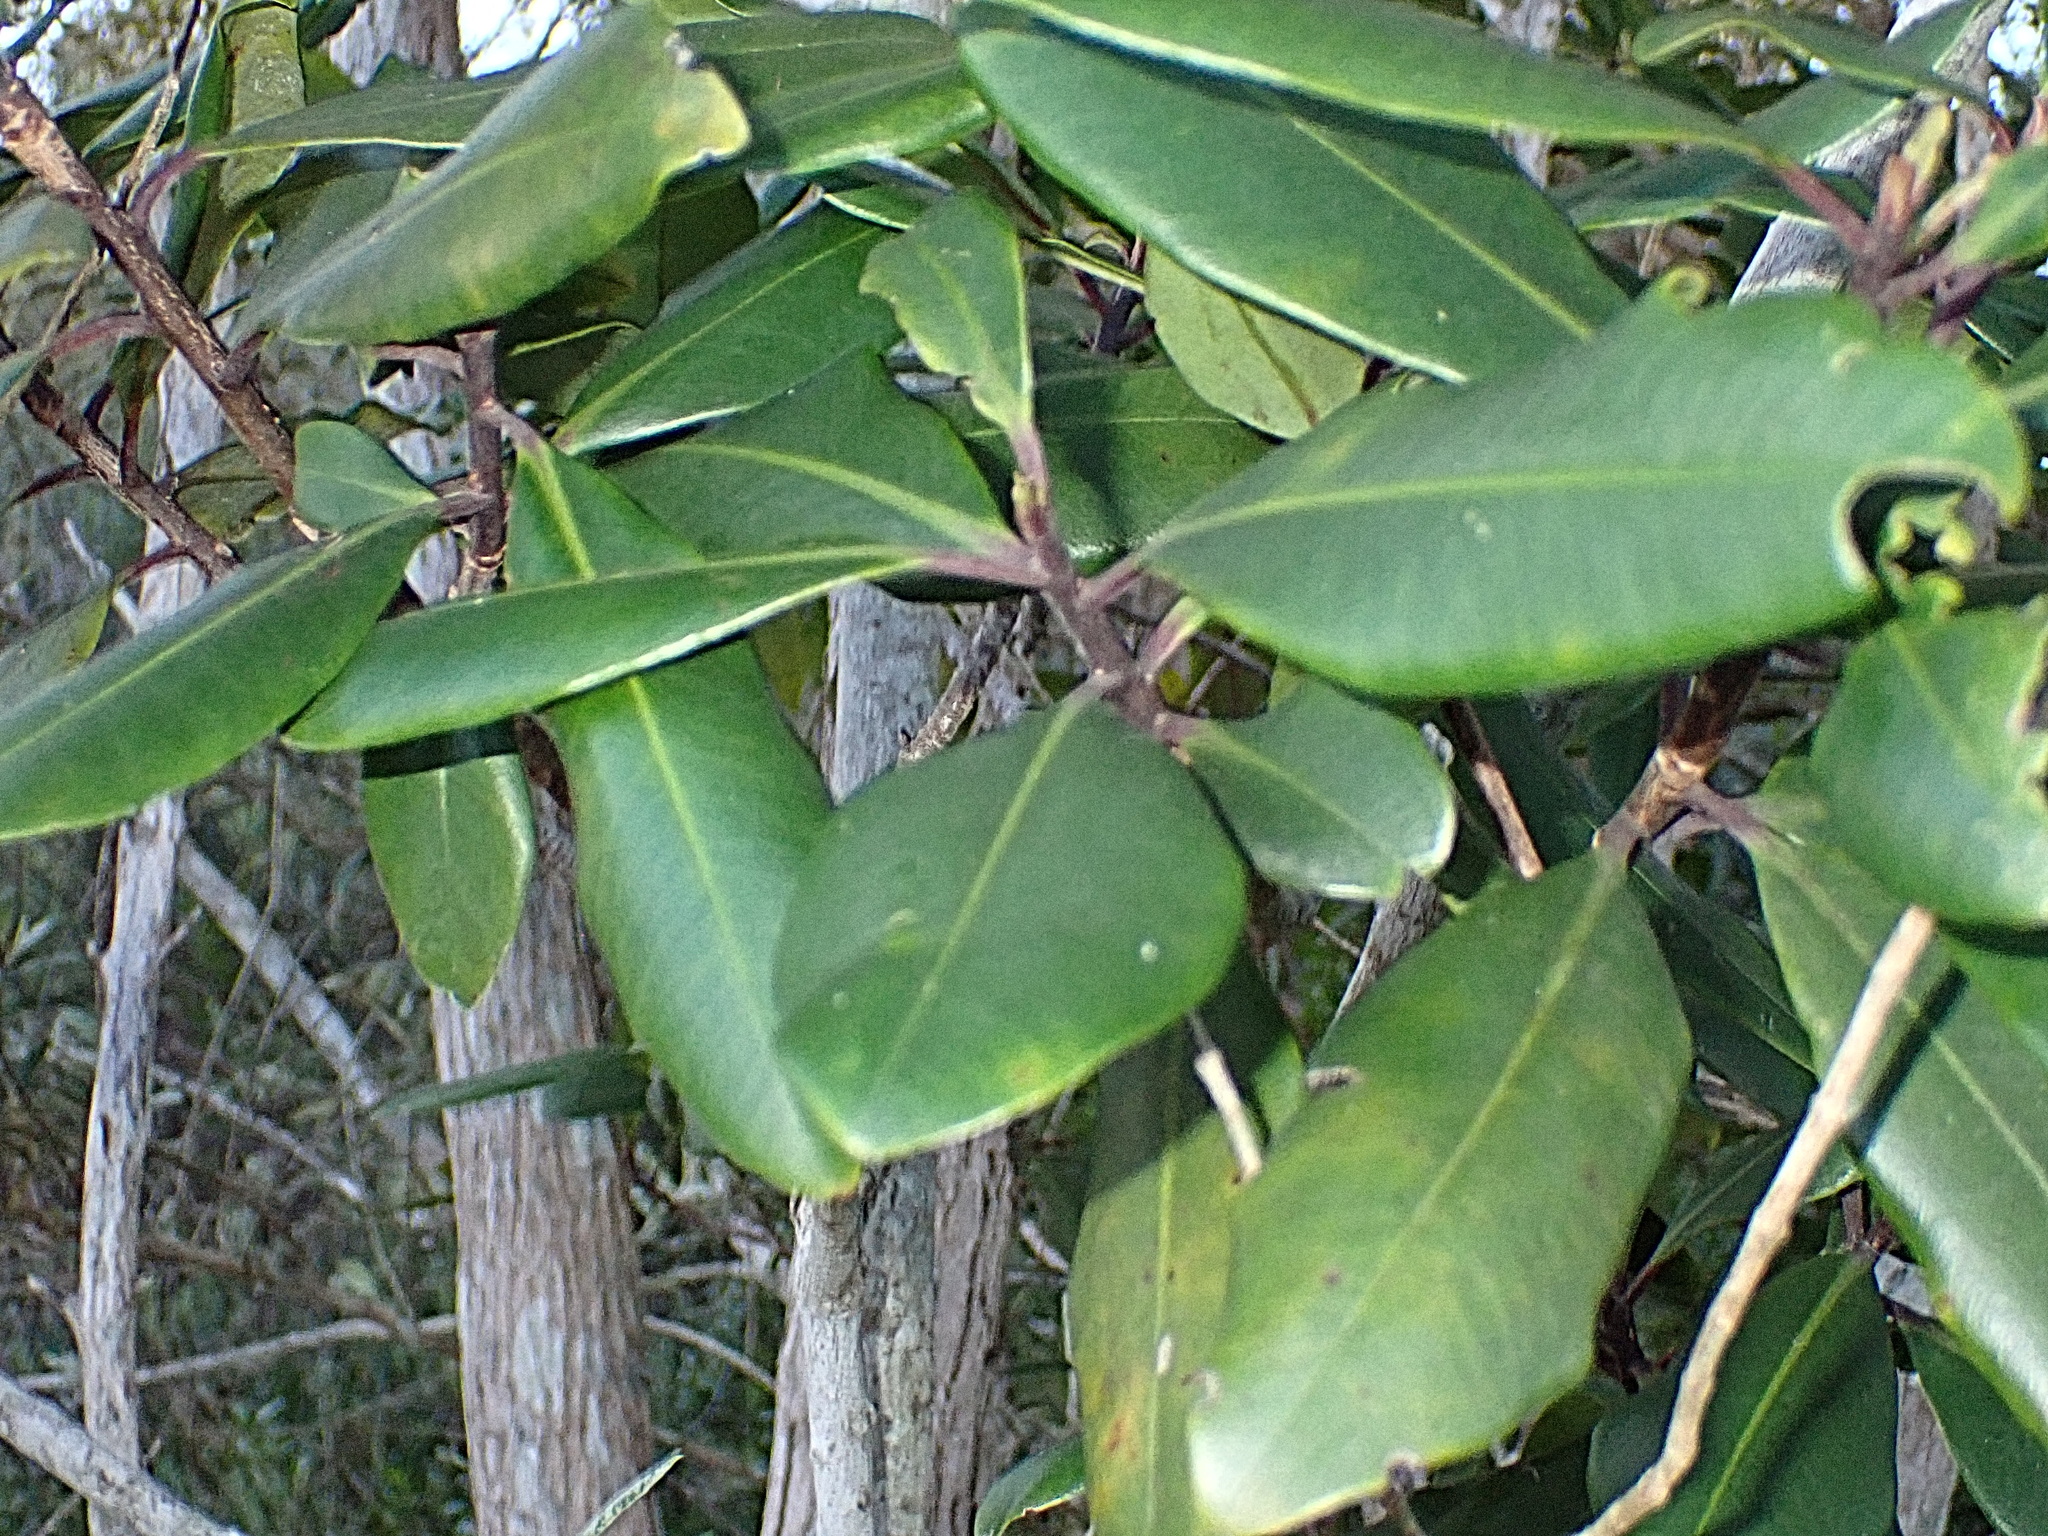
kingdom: Plantae
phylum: Tracheophyta
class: Magnoliopsida
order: Ericales
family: Primulaceae
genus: Myrsine
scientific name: Myrsine melanophloeos
